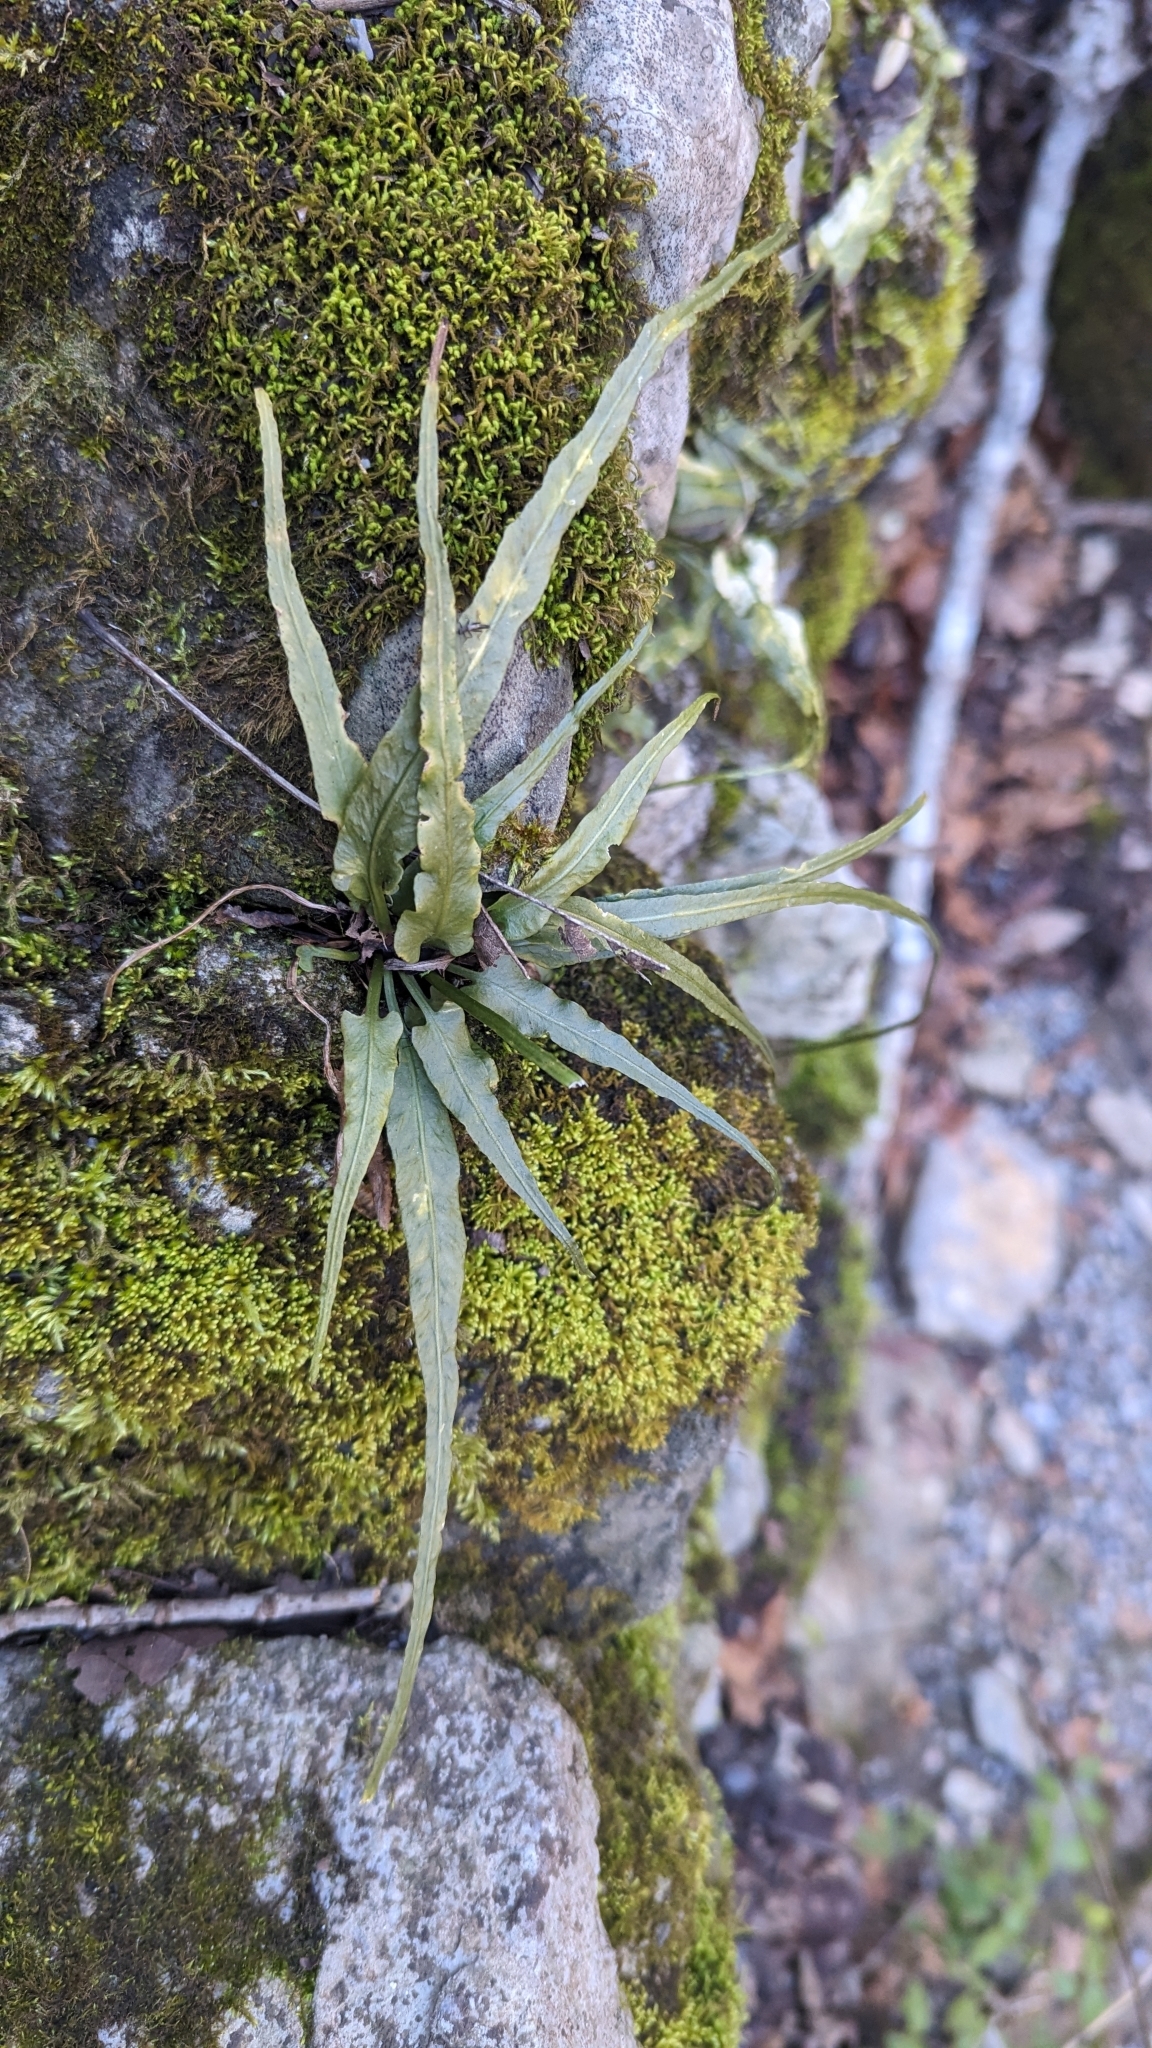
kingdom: Plantae
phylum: Tracheophyta
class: Polypodiopsida
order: Polypodiales
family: Aspleniaceae
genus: Asplenium
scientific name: Asplenium rhizophyllum
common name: Walking fern
